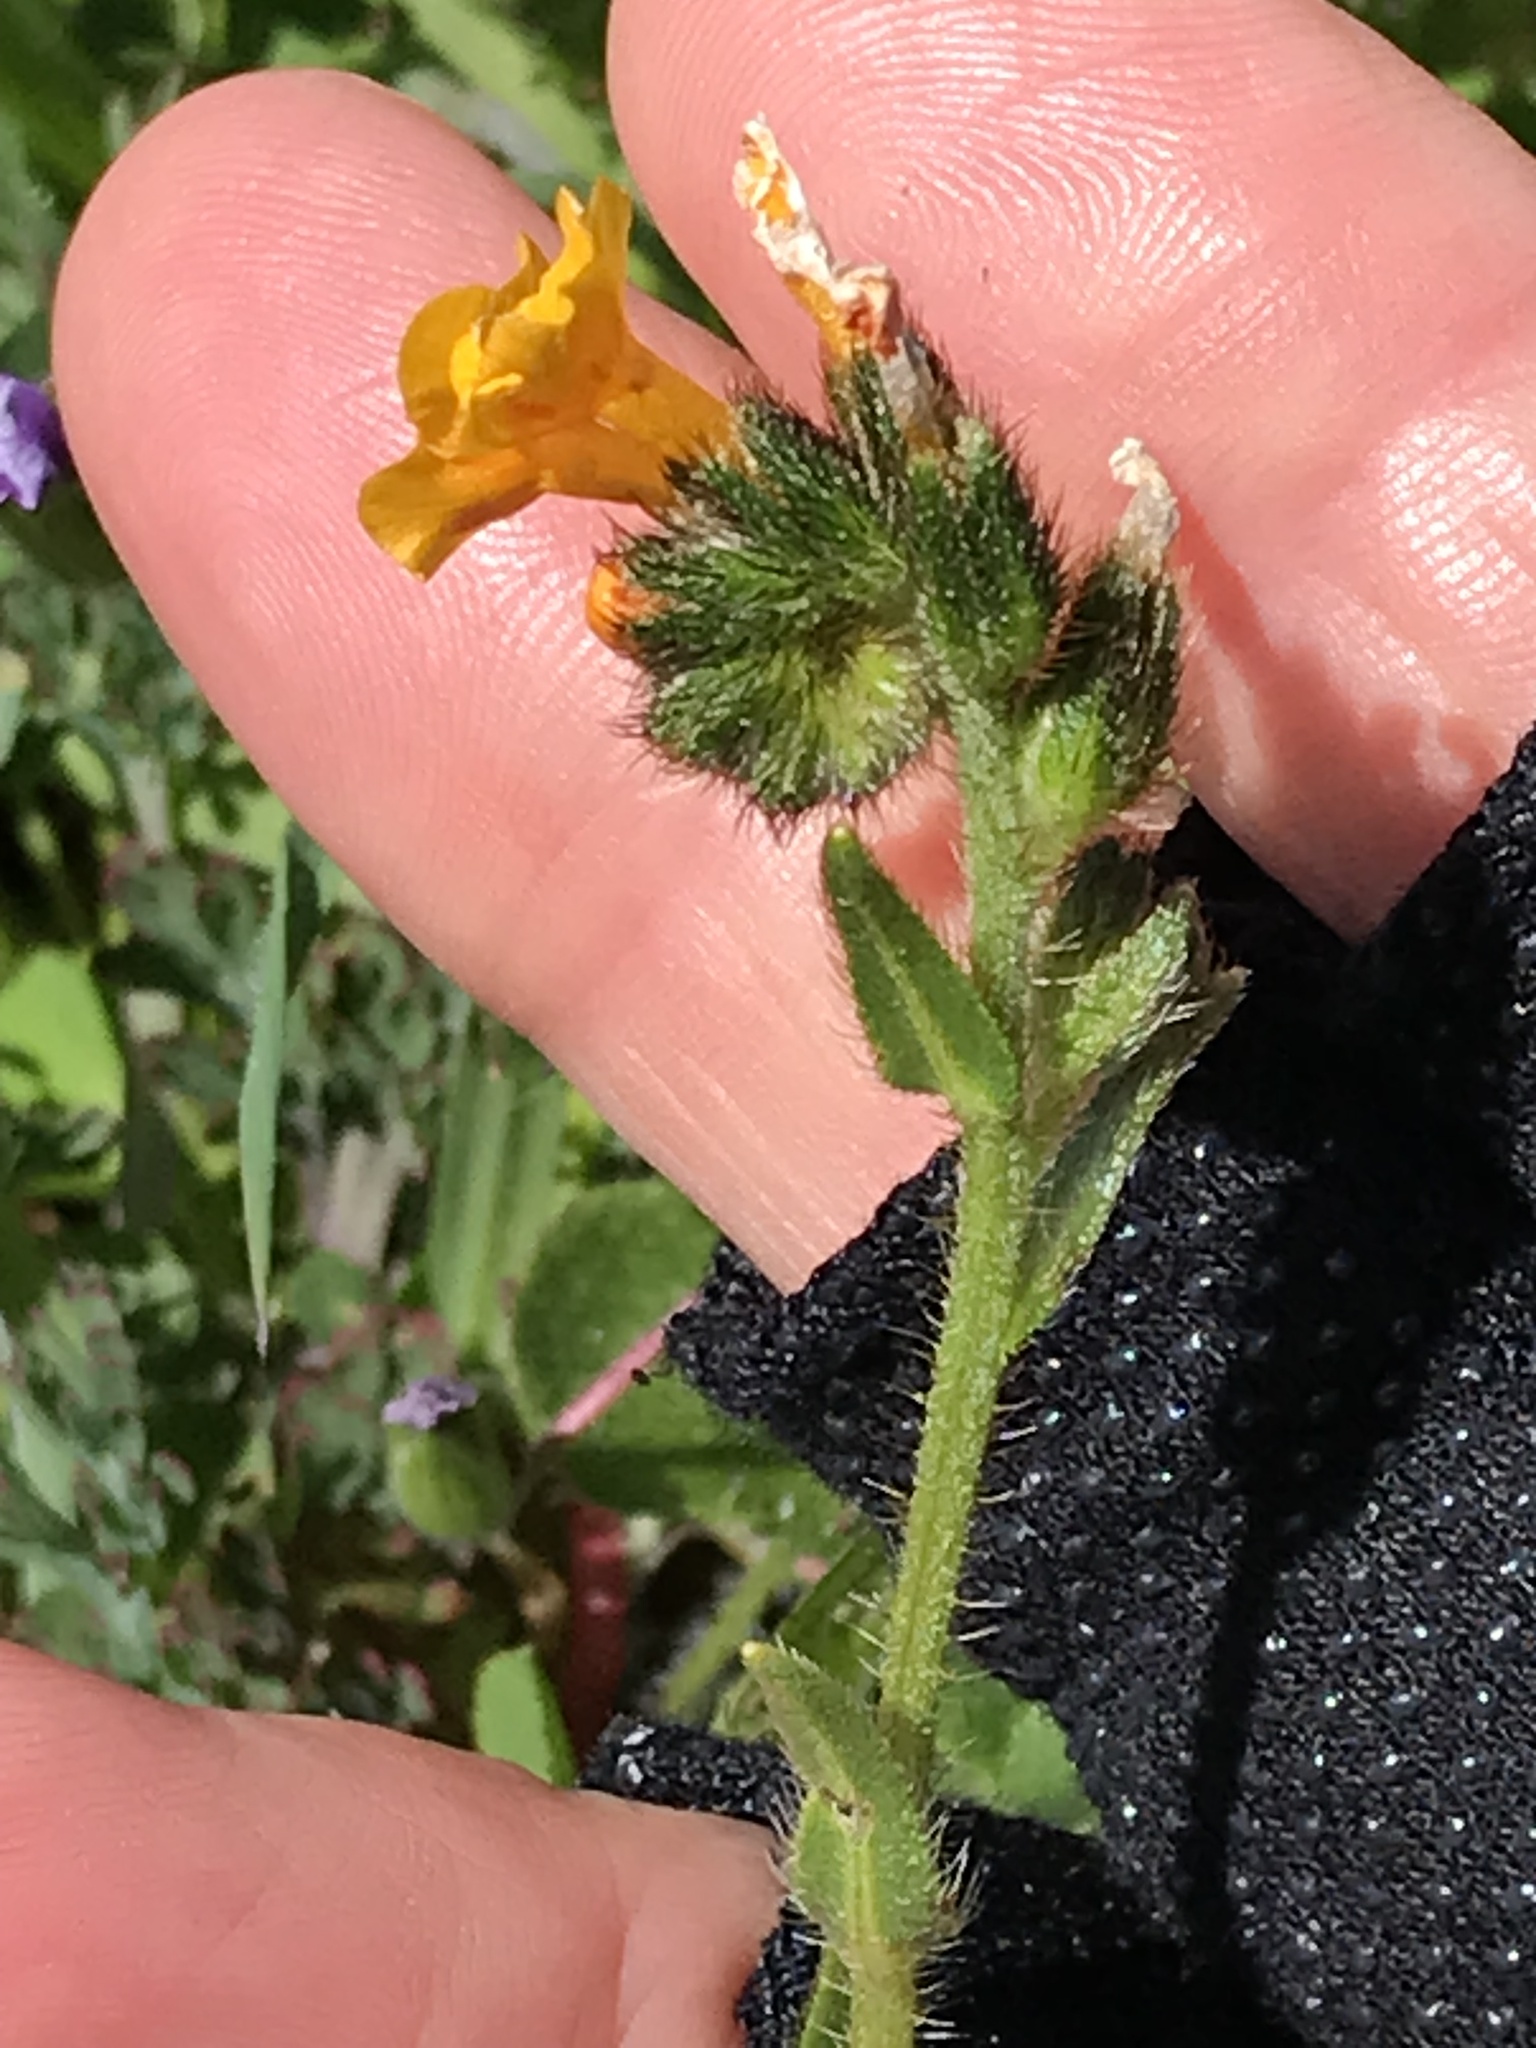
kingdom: Plantae
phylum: Tracheophyta
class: Magnoliopsida
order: Boraginales
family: Boraginaceae
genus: Amsinckia
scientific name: Amsinckia menziesii
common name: Menzies' fiddleneck
